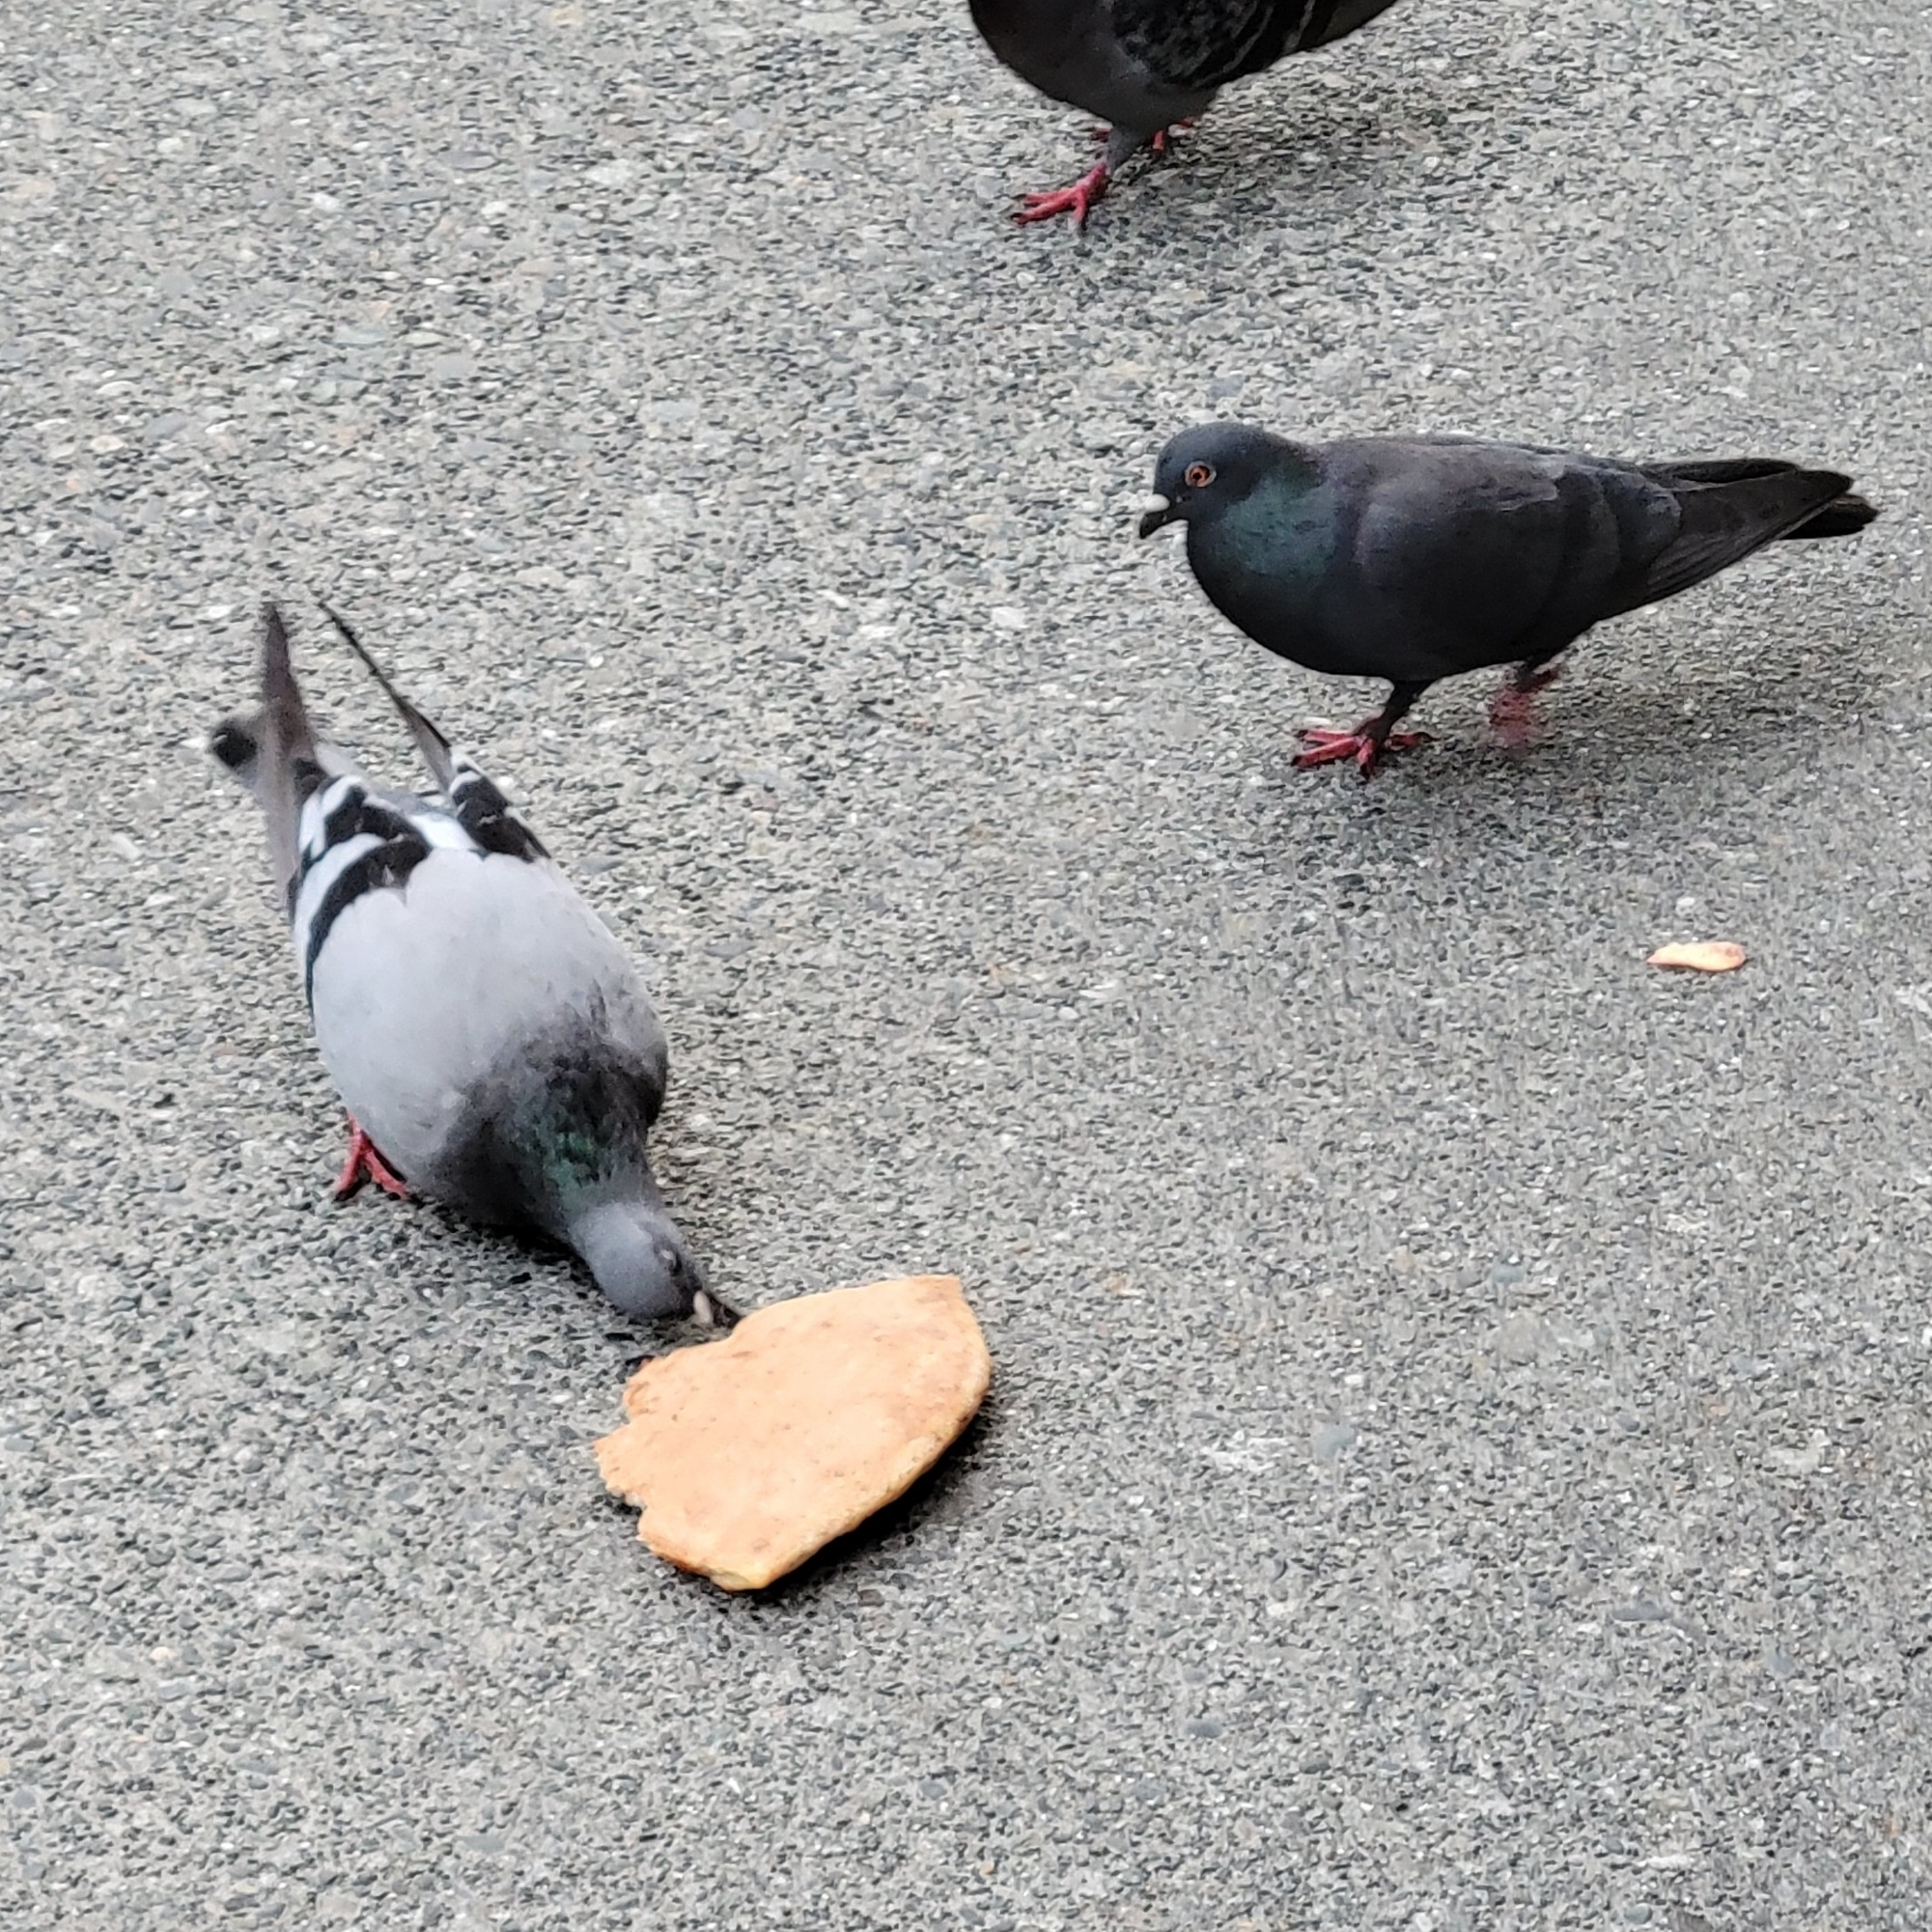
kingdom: Animalia
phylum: Chordata
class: Aves
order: Columbiformes
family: Columbidae
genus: Columba
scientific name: Columba livia
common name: Rock pigeon
